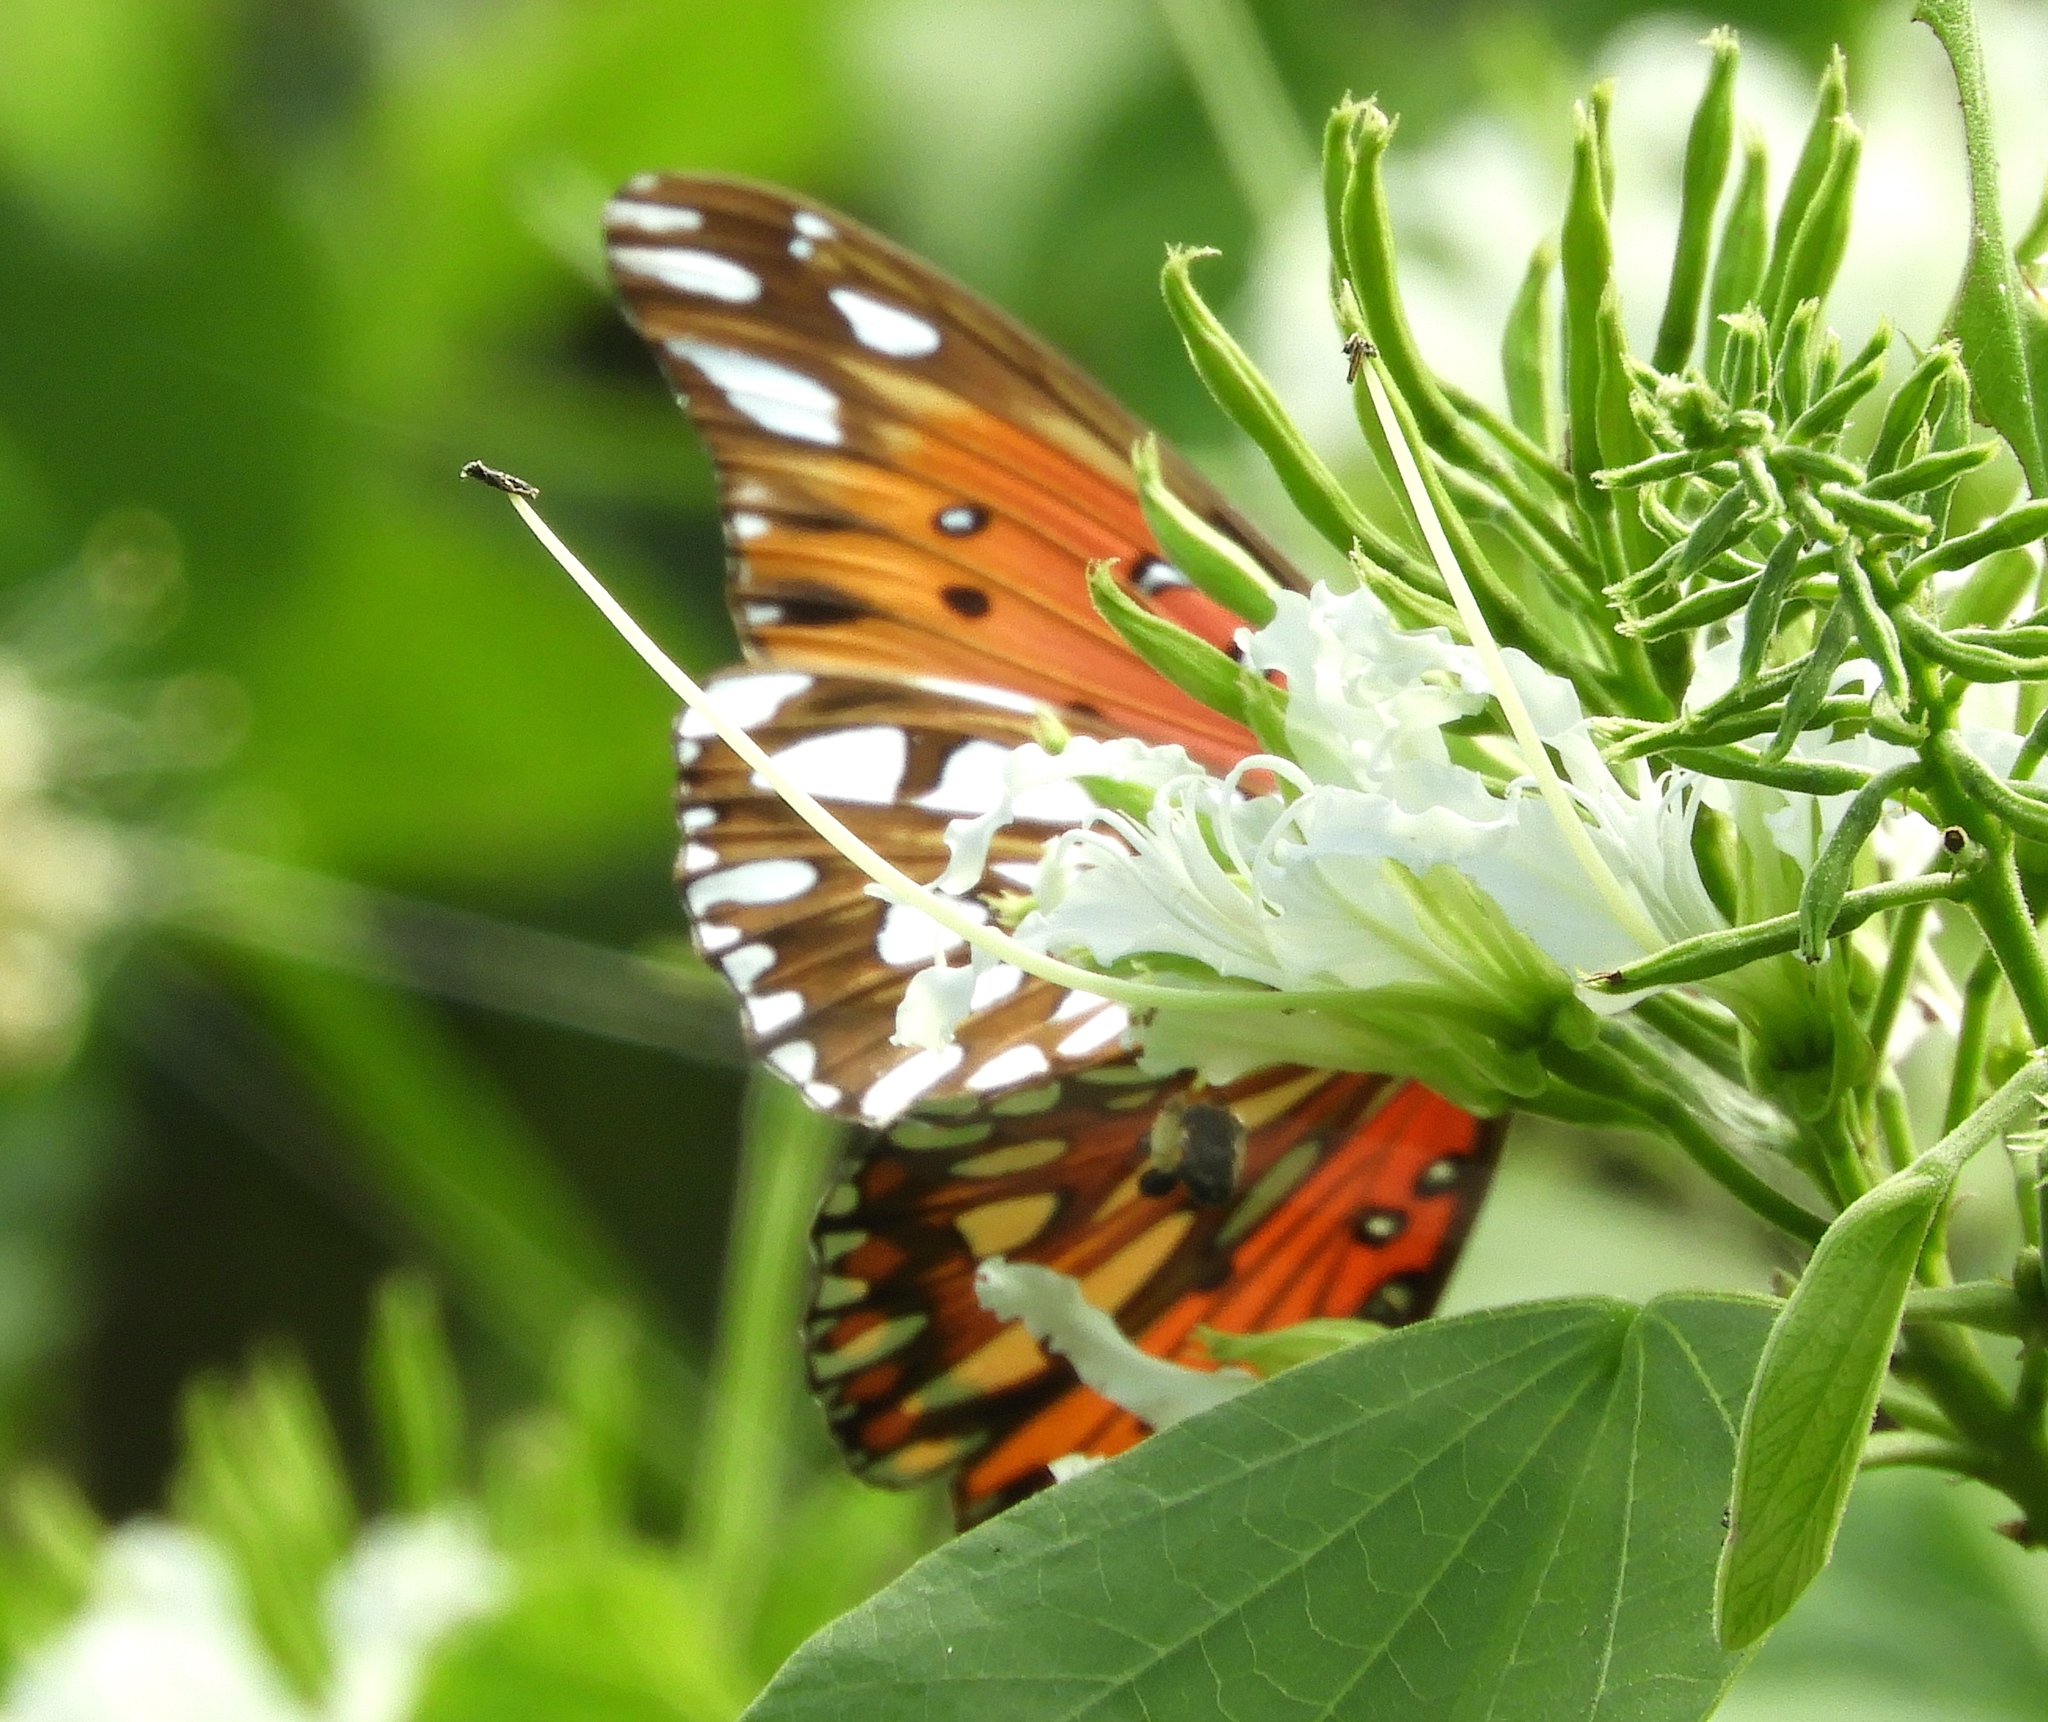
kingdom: Animalia
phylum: Arthropoda
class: Insecta
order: Lepidoptera
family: Nymphalidae
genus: Dione
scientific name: Dione vanillae
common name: Gulf fritillary
